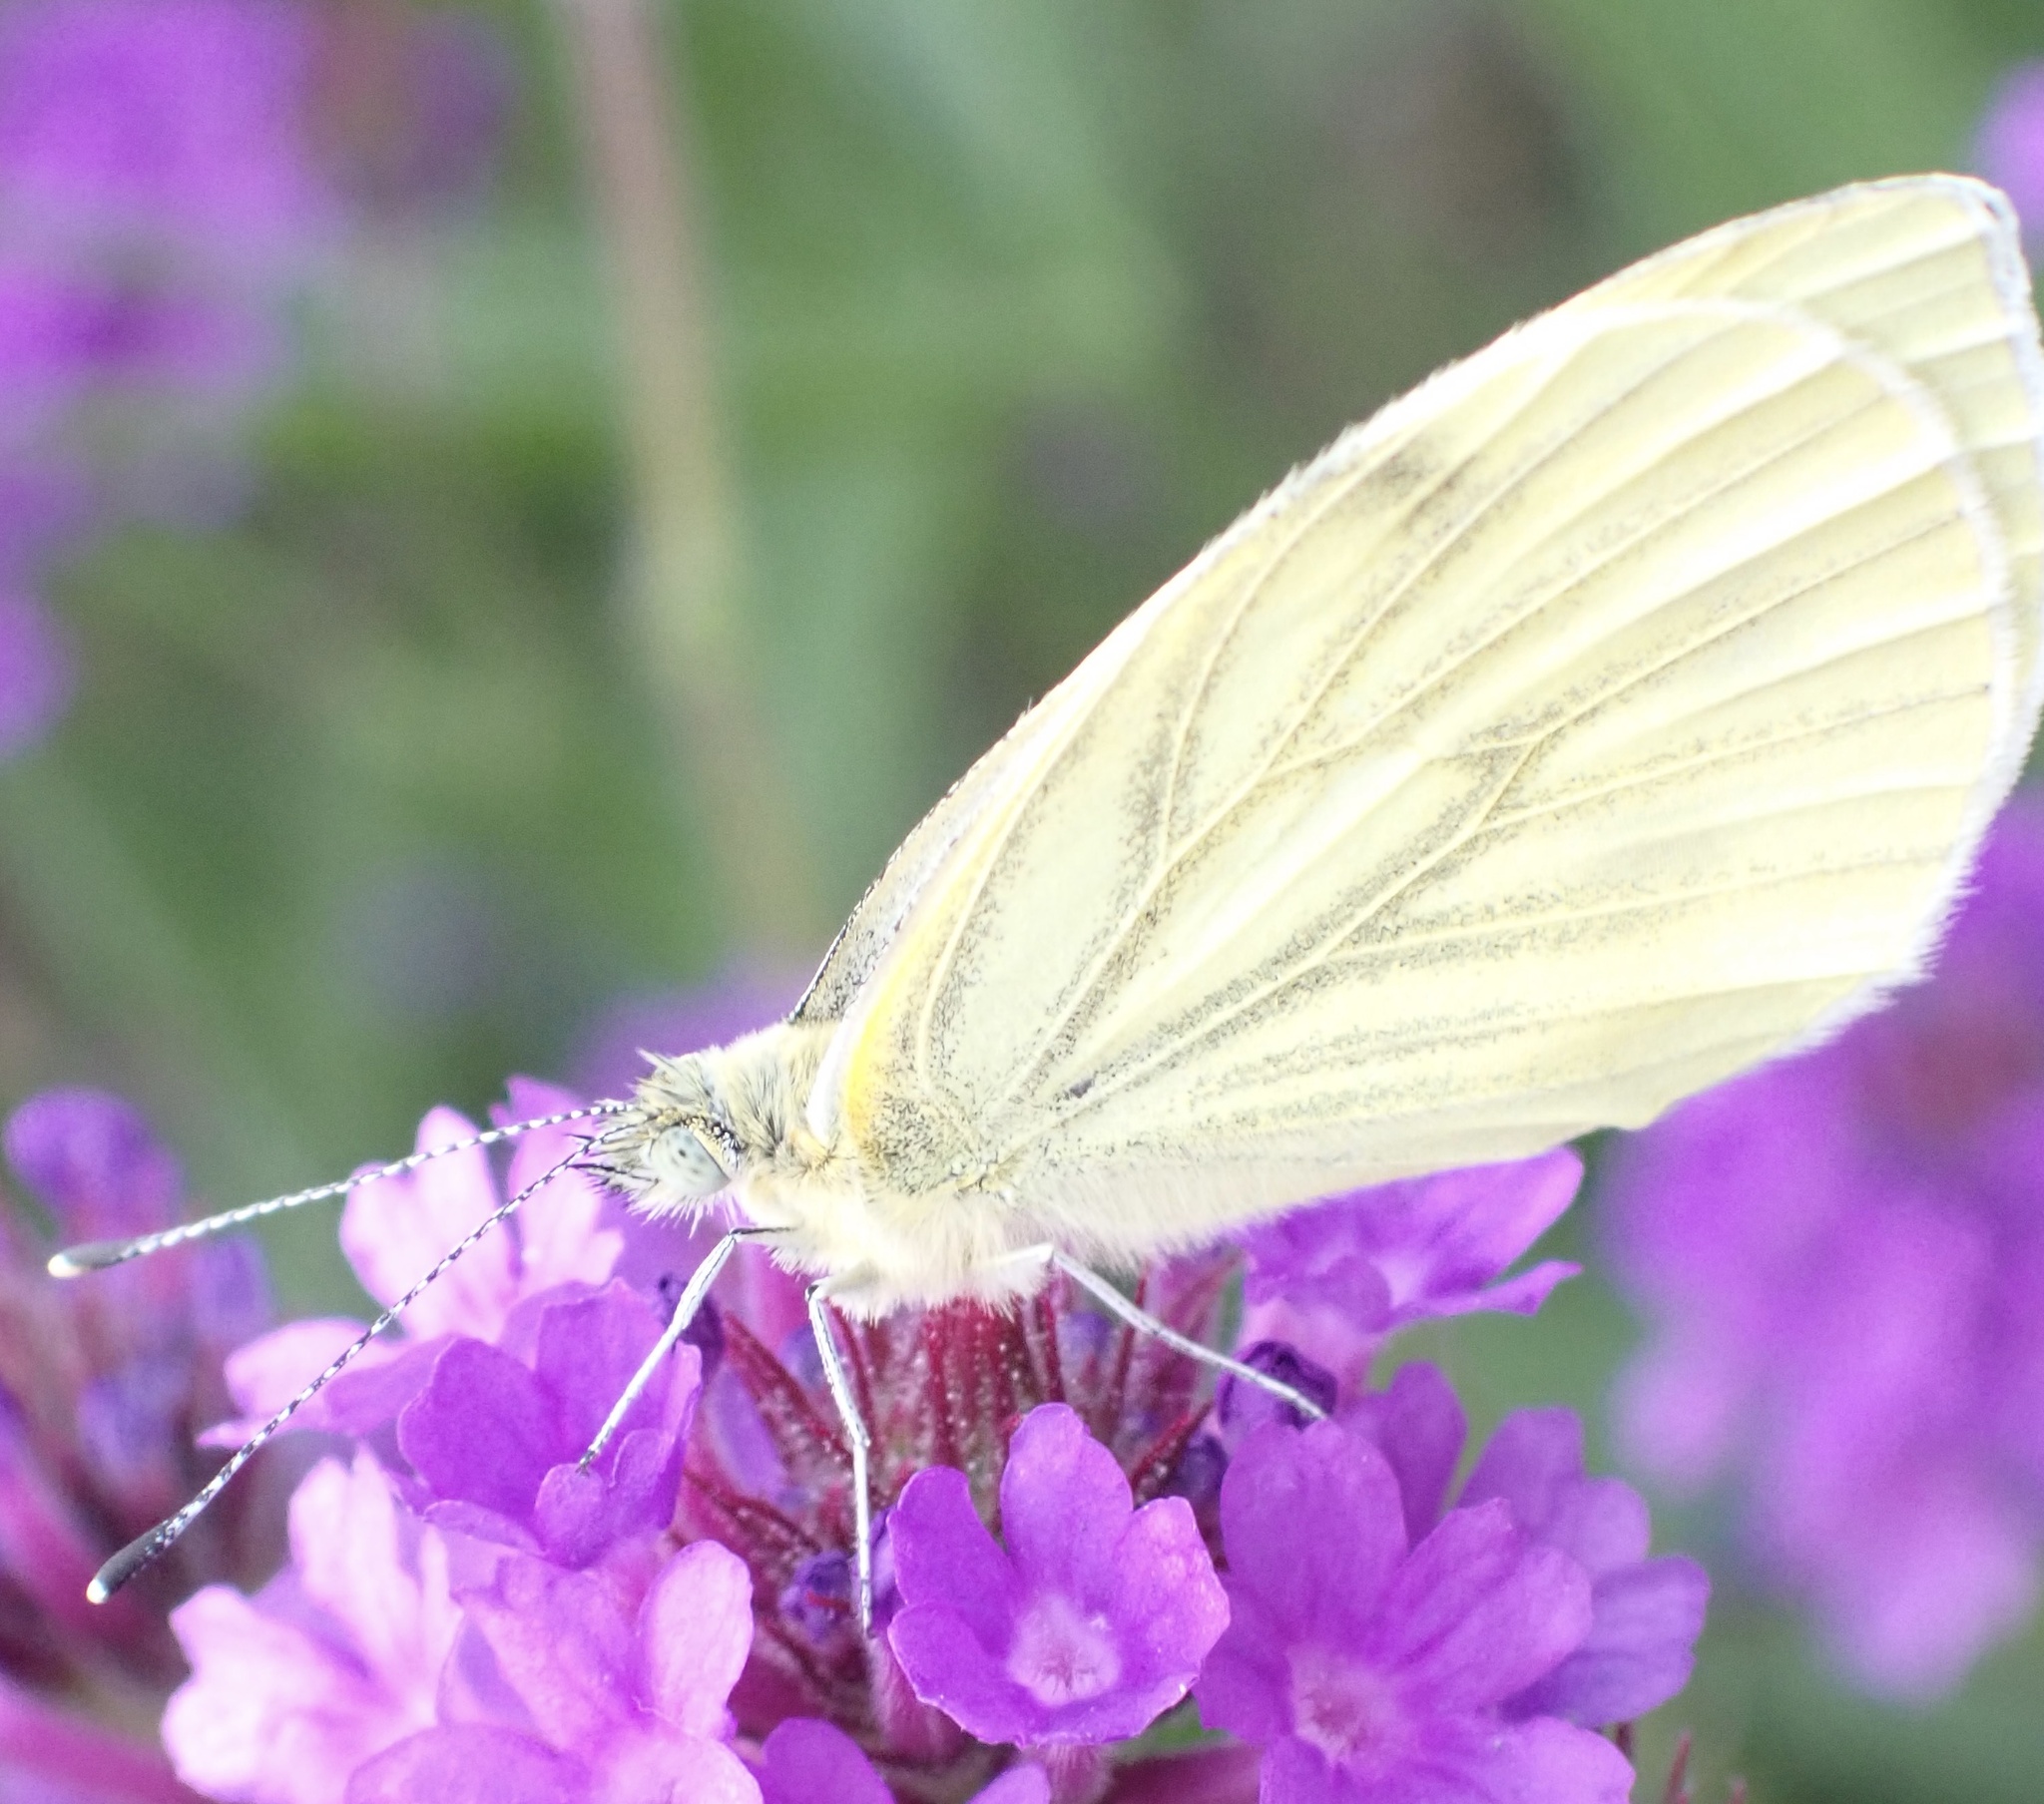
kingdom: Animalia
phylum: Arthropoda
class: Insecta
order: Lepidoptera
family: Pieridae
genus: Pieris
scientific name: Pieris napi
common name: Green-veined white
